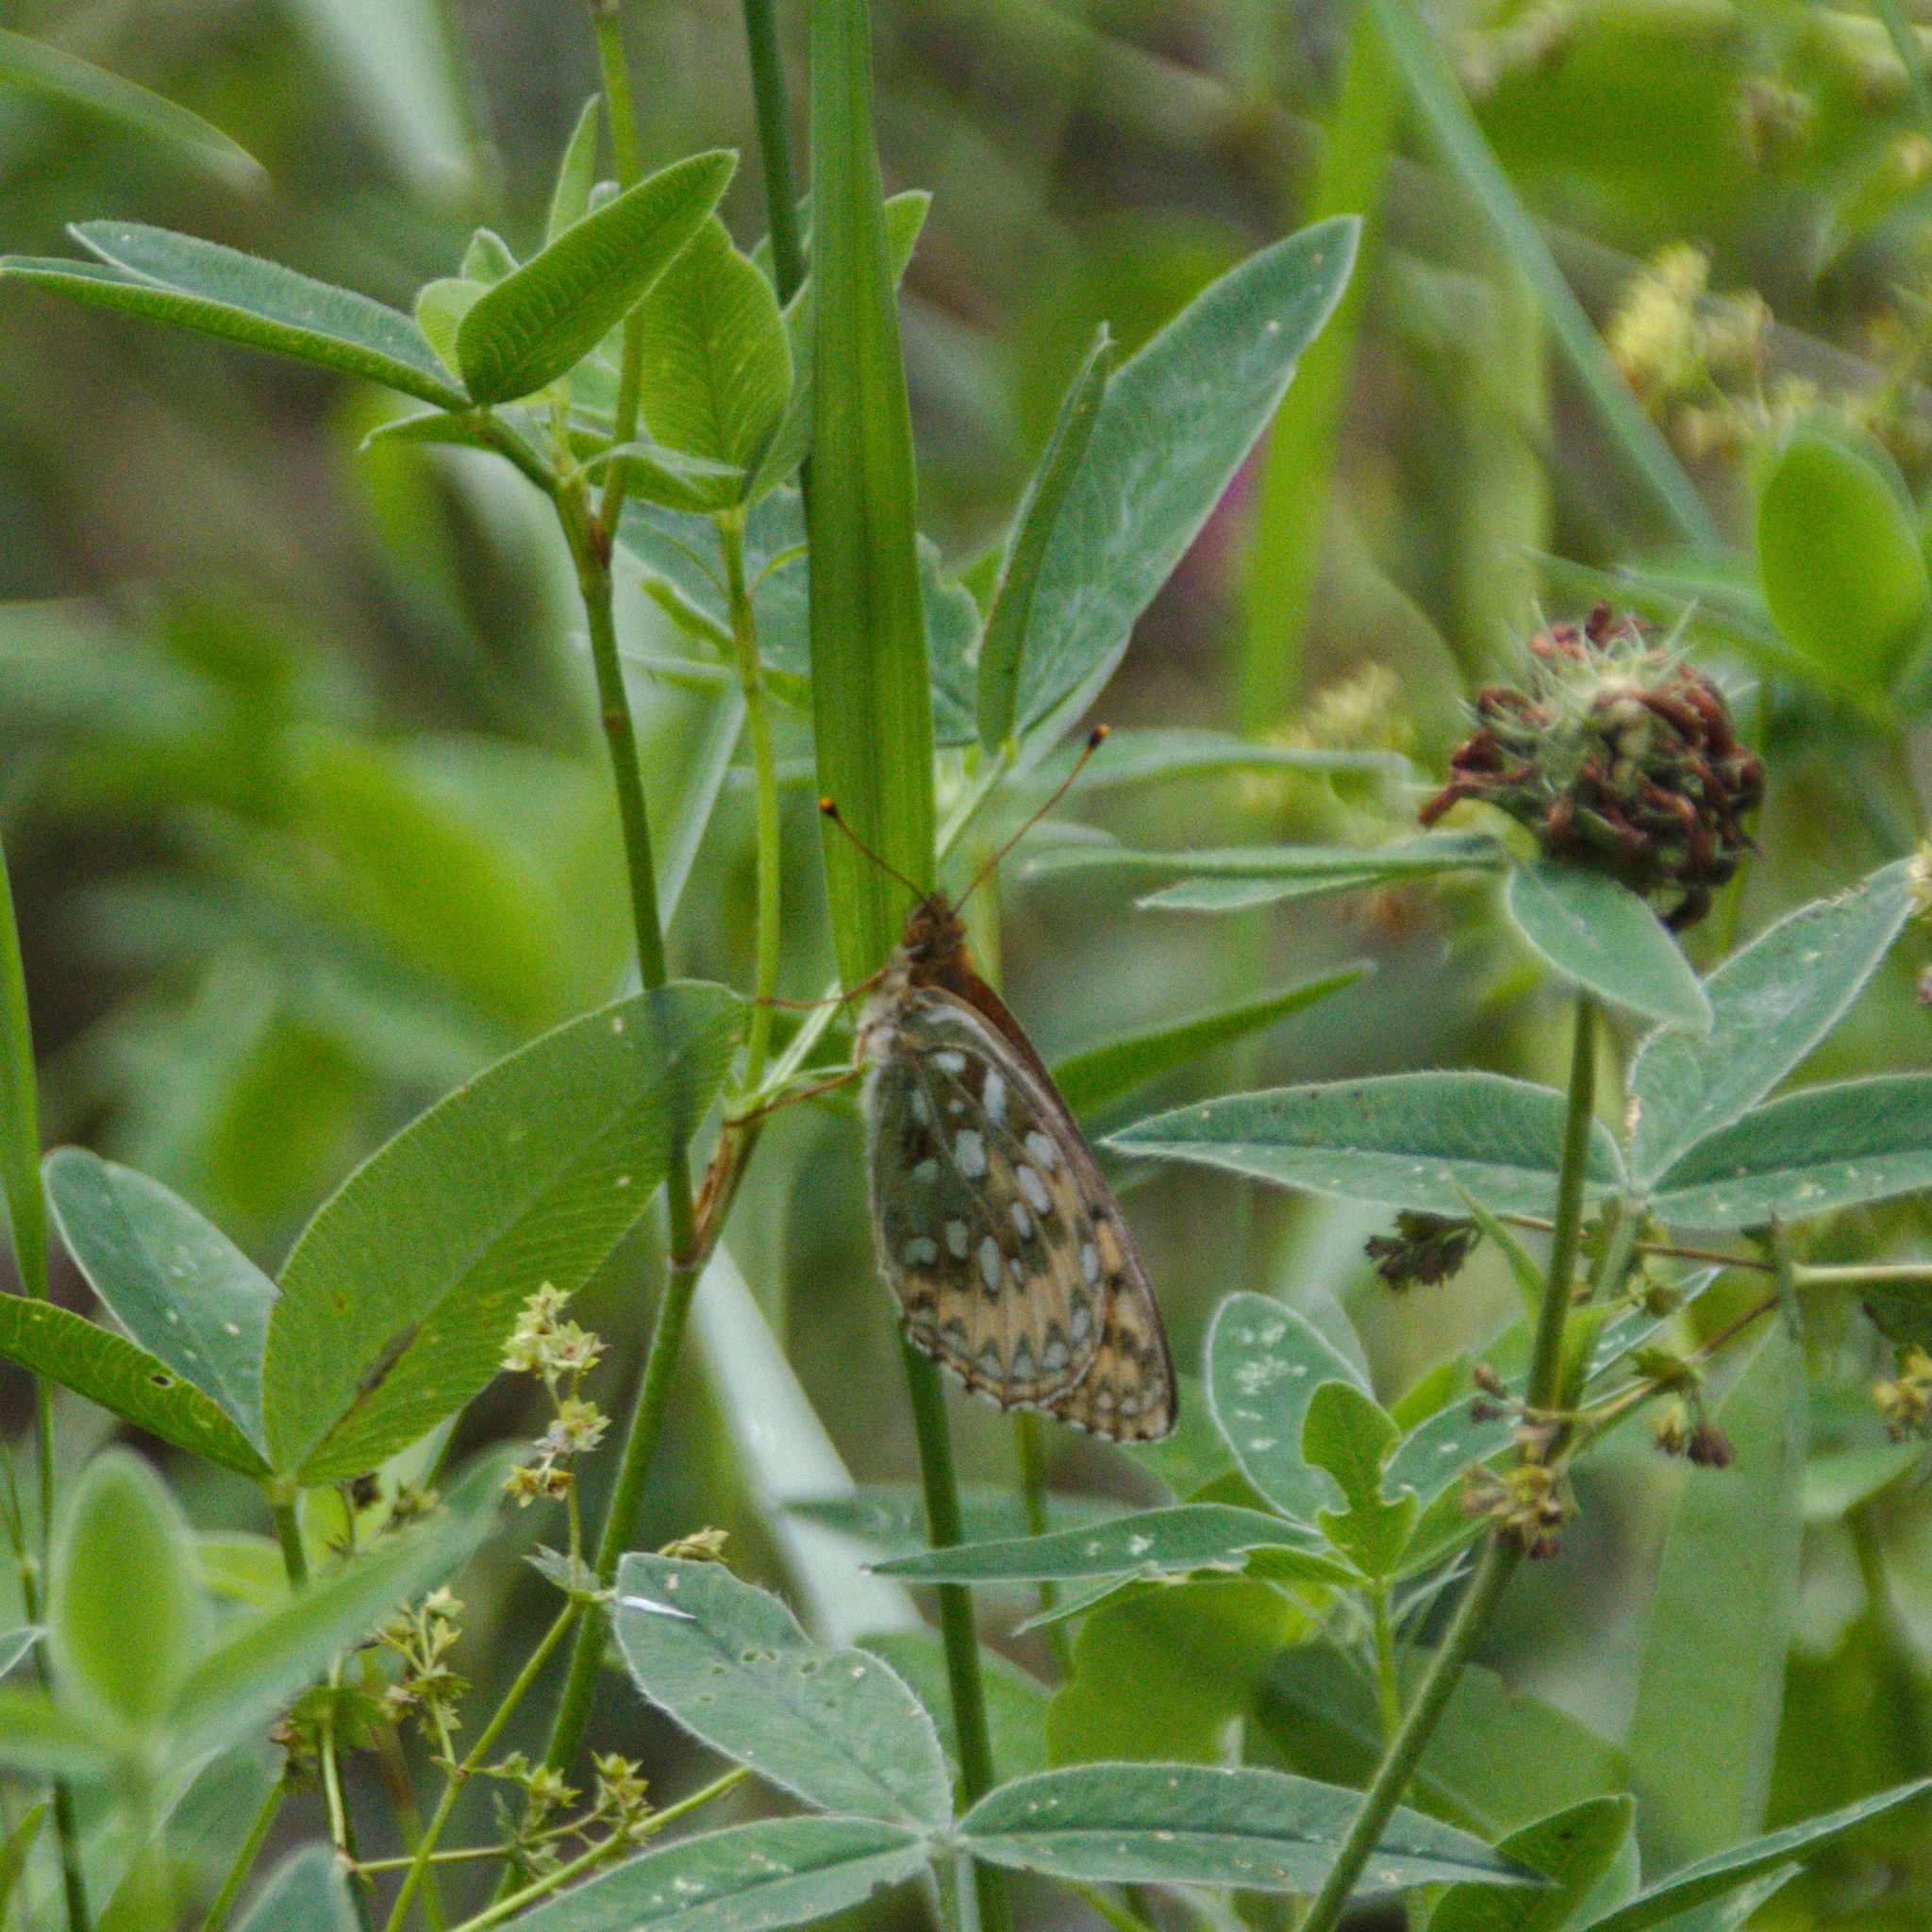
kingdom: Animalia
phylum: Arthropoda
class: Insecta
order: Lepidoptera
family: Nymphalidae
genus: Speyeria
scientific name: Speyeria aglaja
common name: Dark green fritillary
